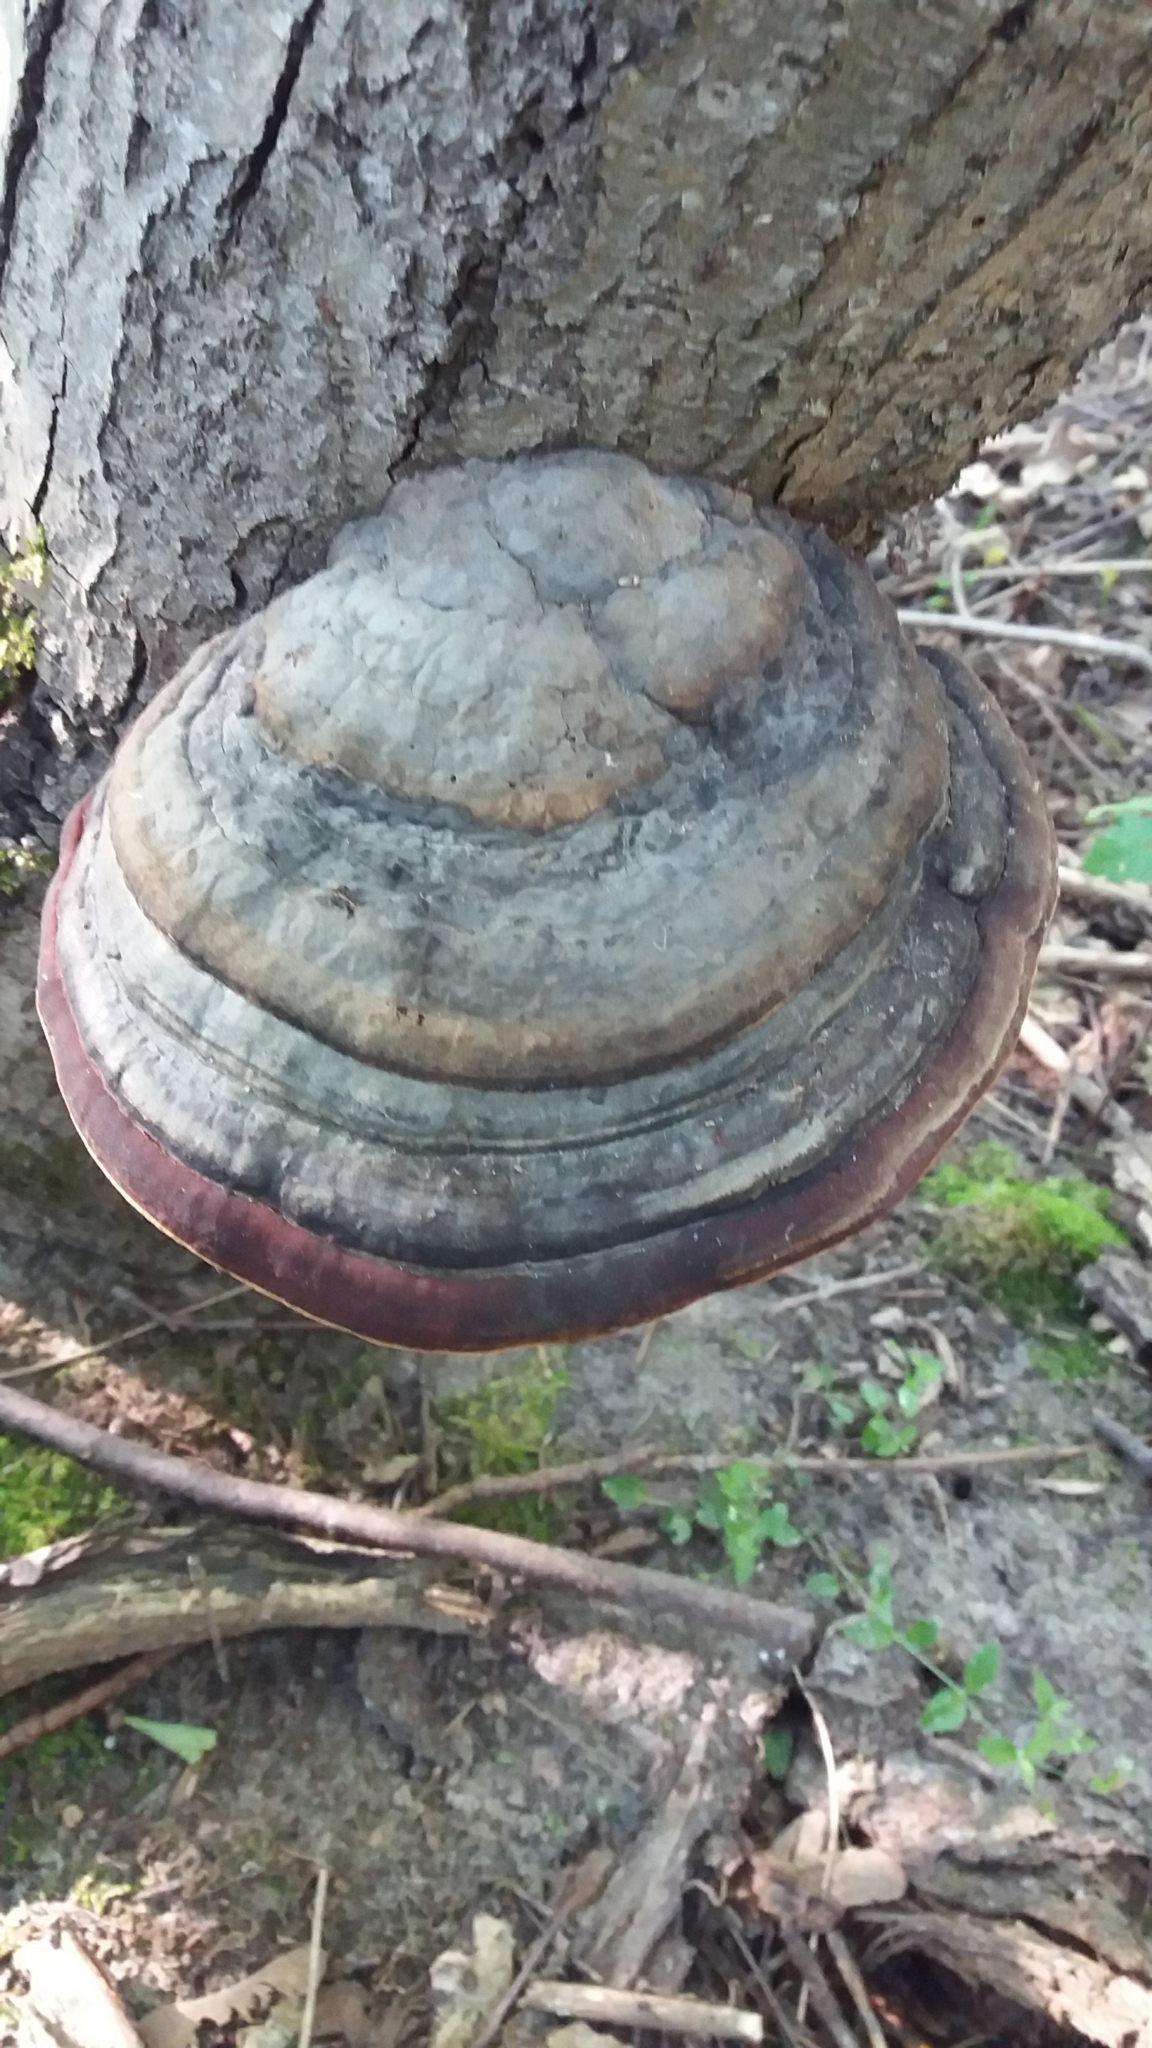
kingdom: Fungi
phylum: Basidiomycota
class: Agaricomycetes
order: Polyporales
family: Fomitopsidaceae
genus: Fomitopsis
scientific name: Fomitopsis pinicola
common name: Red-belted bracket
